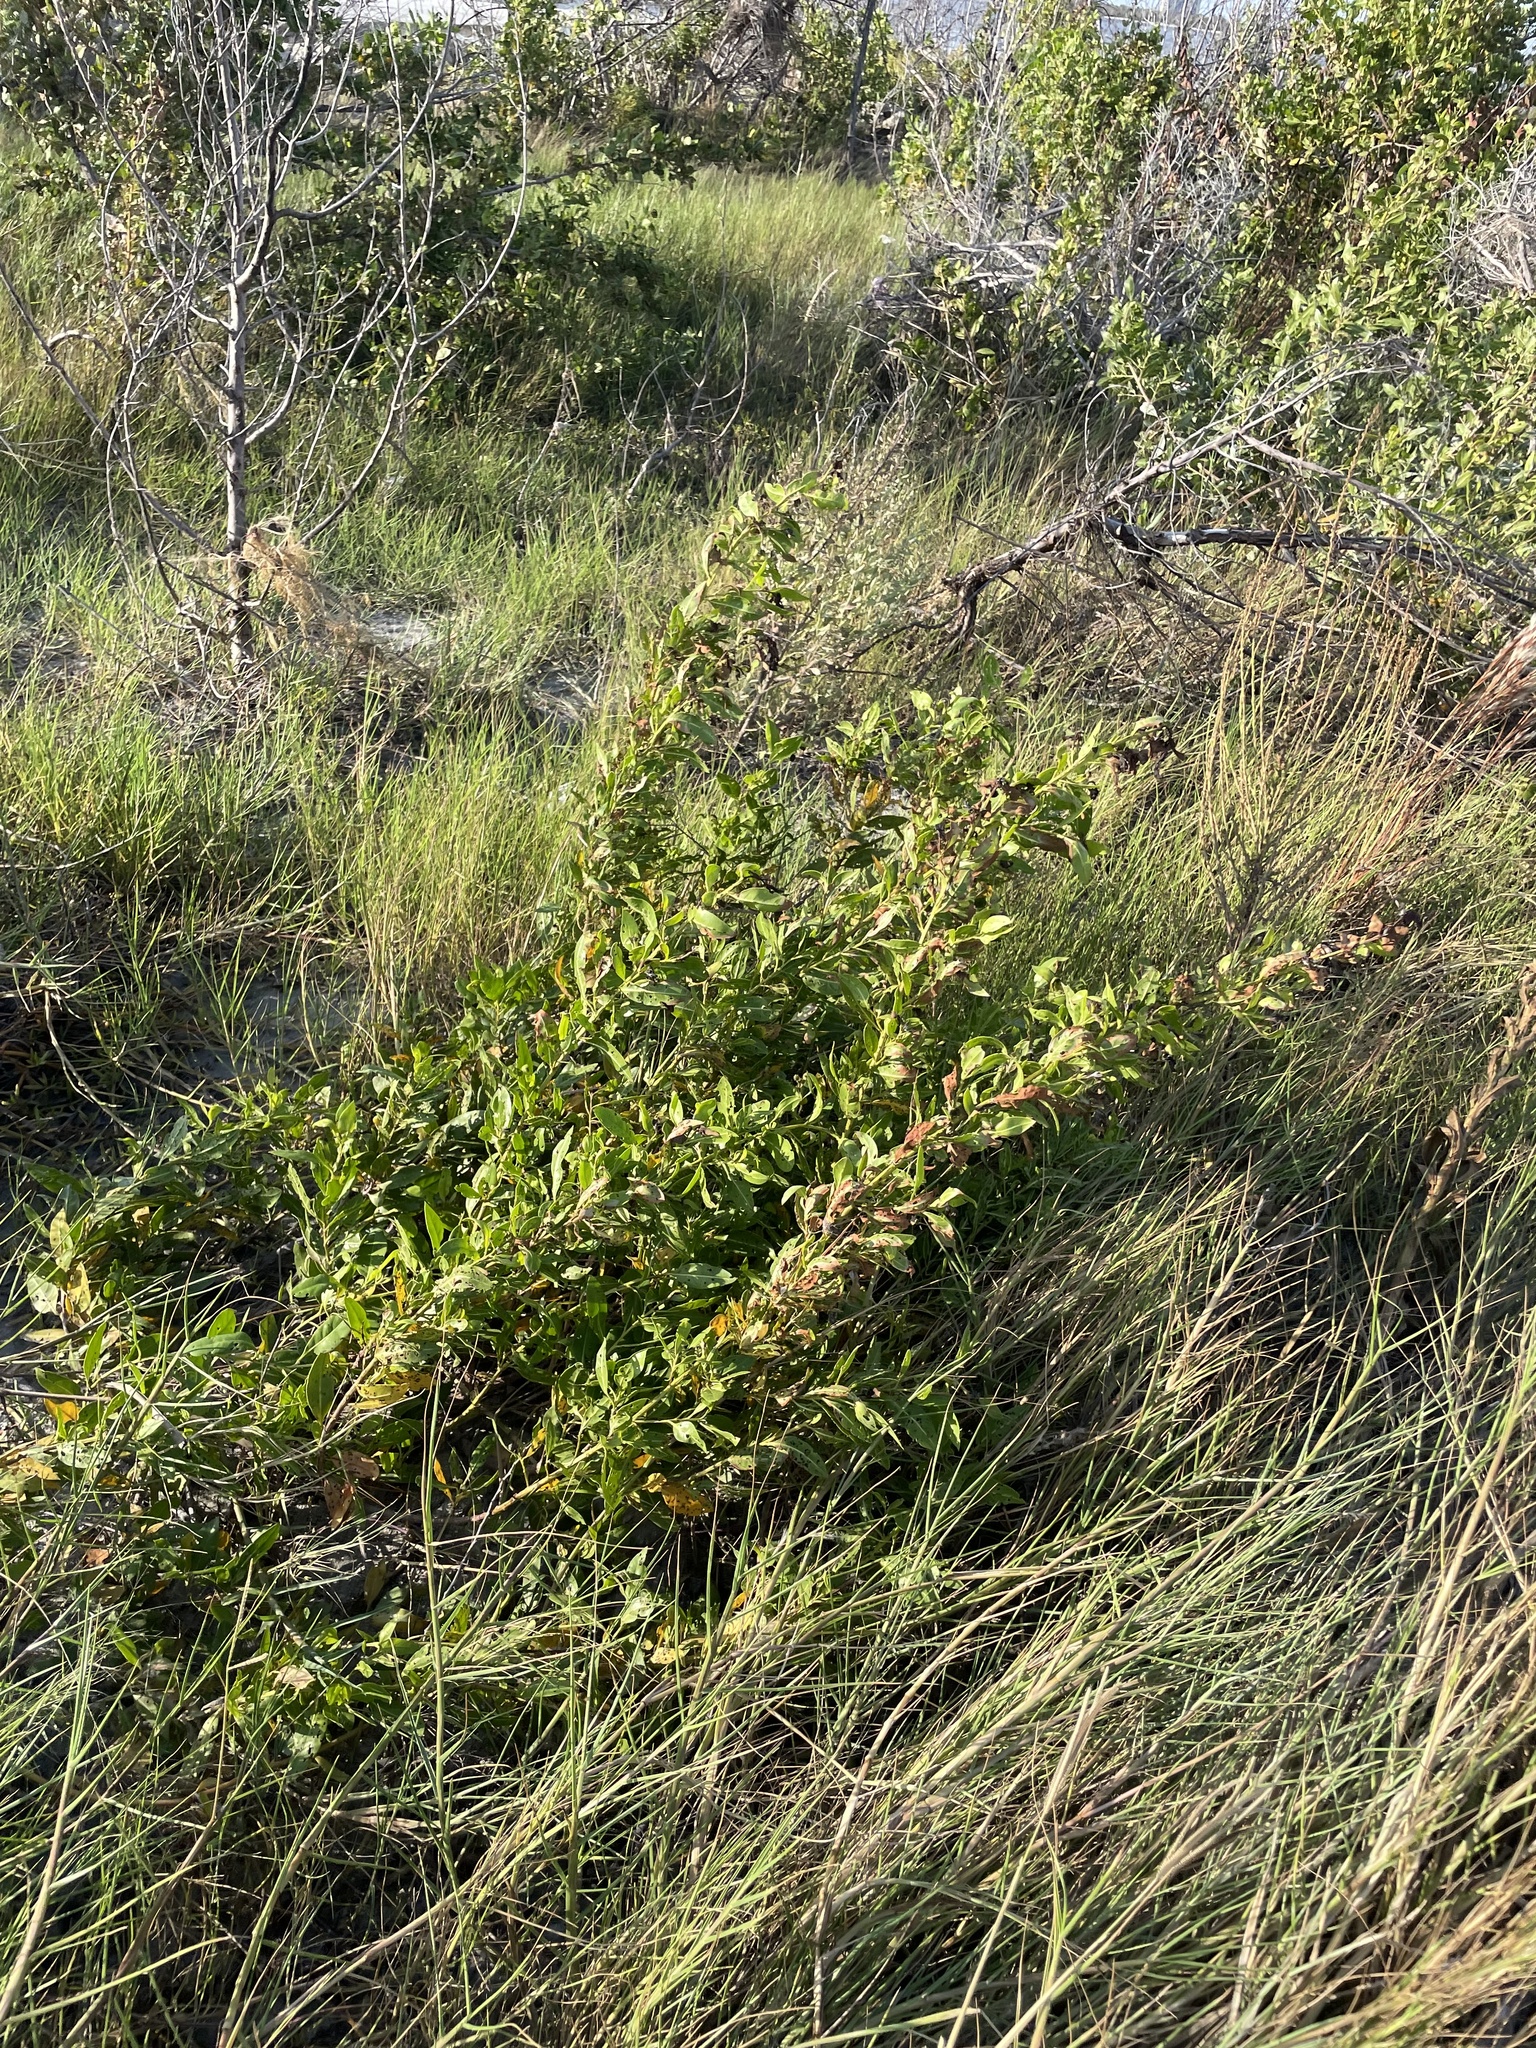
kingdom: Plantae
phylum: Tracheophyta
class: Magnoliopsida
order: Myrtales
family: Combretaceae
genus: Conocarpus
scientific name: Conocarpus erectus
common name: Button mangrove
